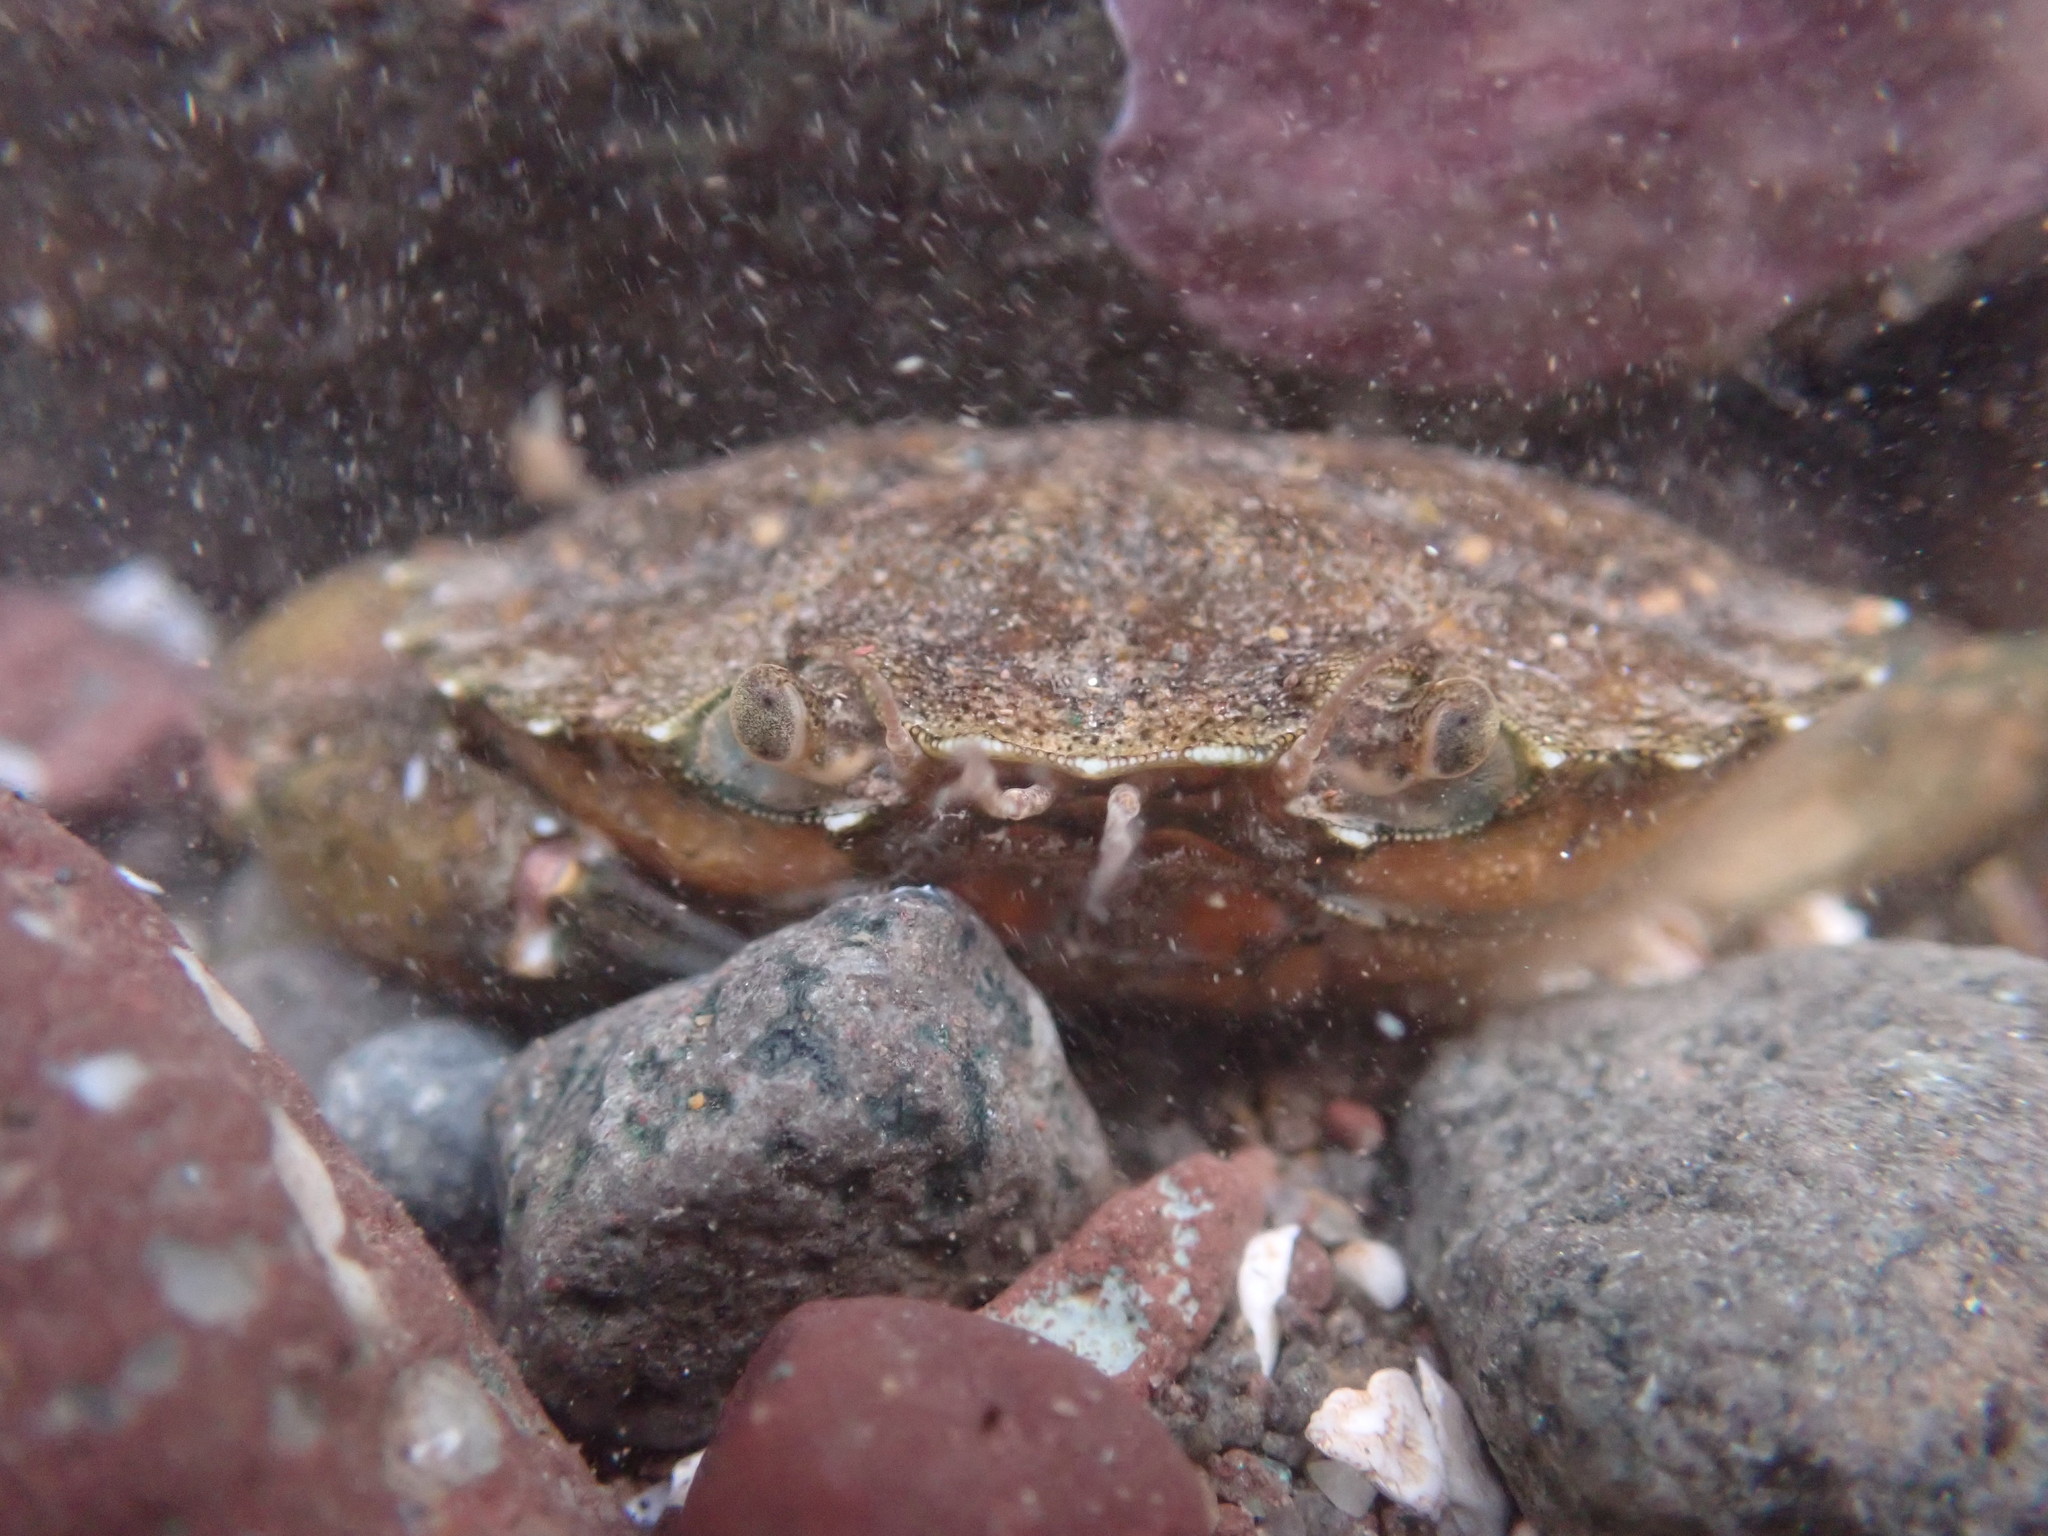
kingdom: Animalia
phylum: Arthropoda
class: Malacostraca
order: Decapoda
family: Carcinidae
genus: Carcinus
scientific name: Carcinus maenas
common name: European green crab
